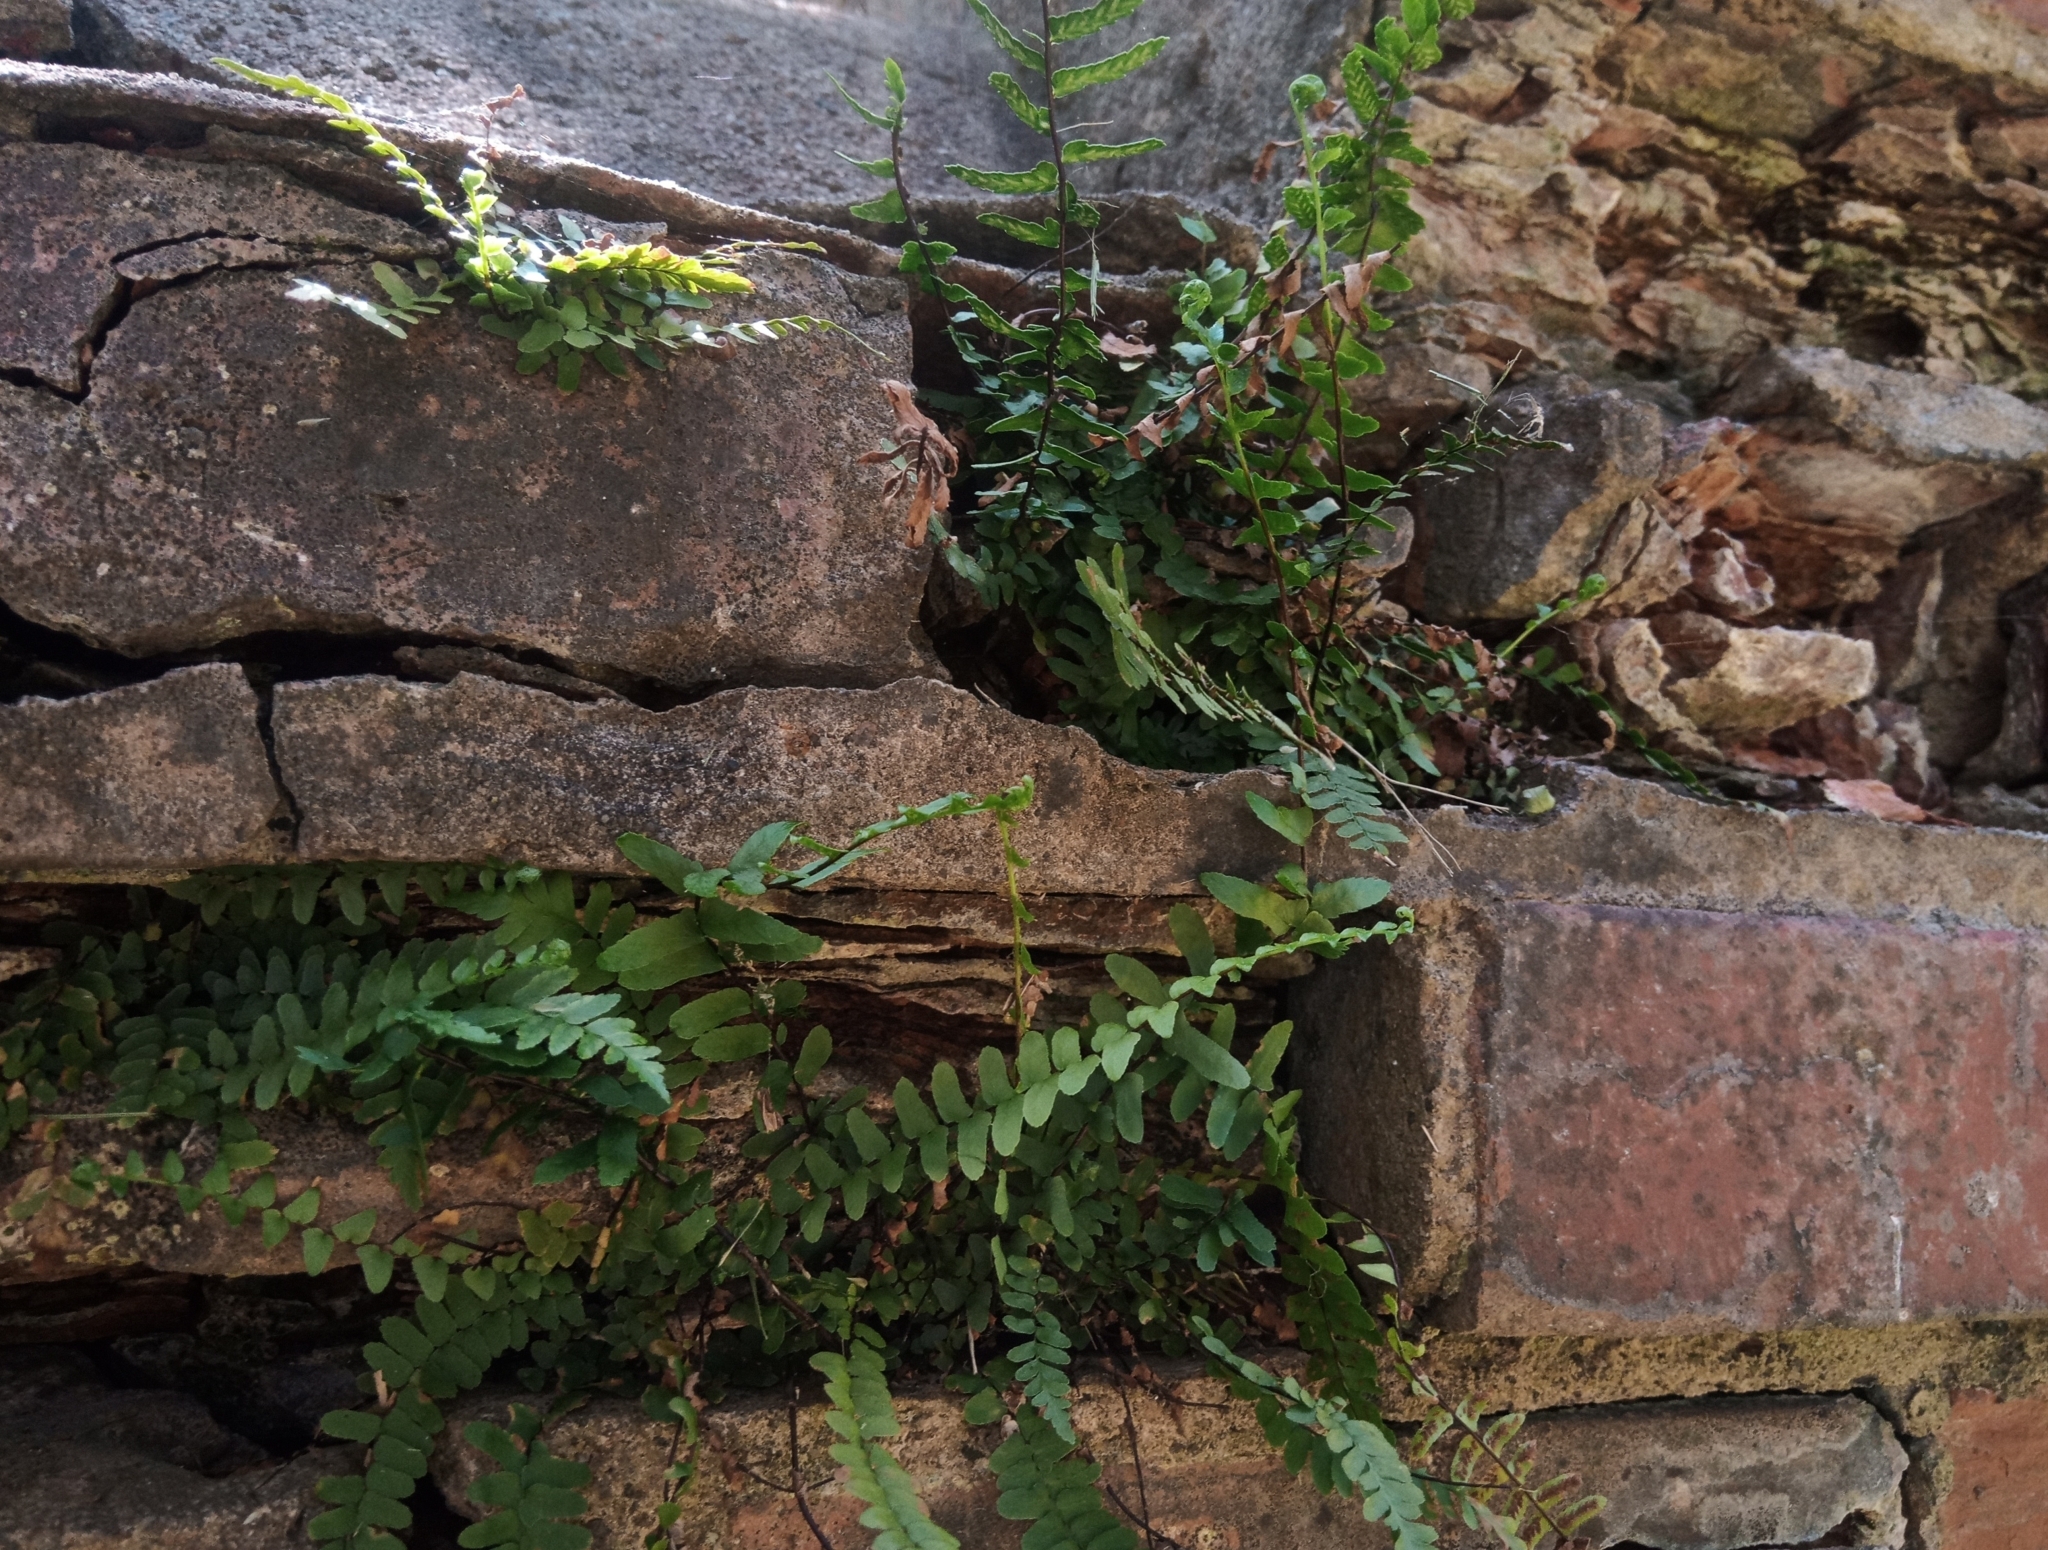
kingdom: Plantae
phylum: Tracheophyta
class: Polypodiopsida
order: Polypodiales
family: Aspleniaceae
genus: Asplenium
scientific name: Asplenium platyneuron
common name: Ebony spleenwort
